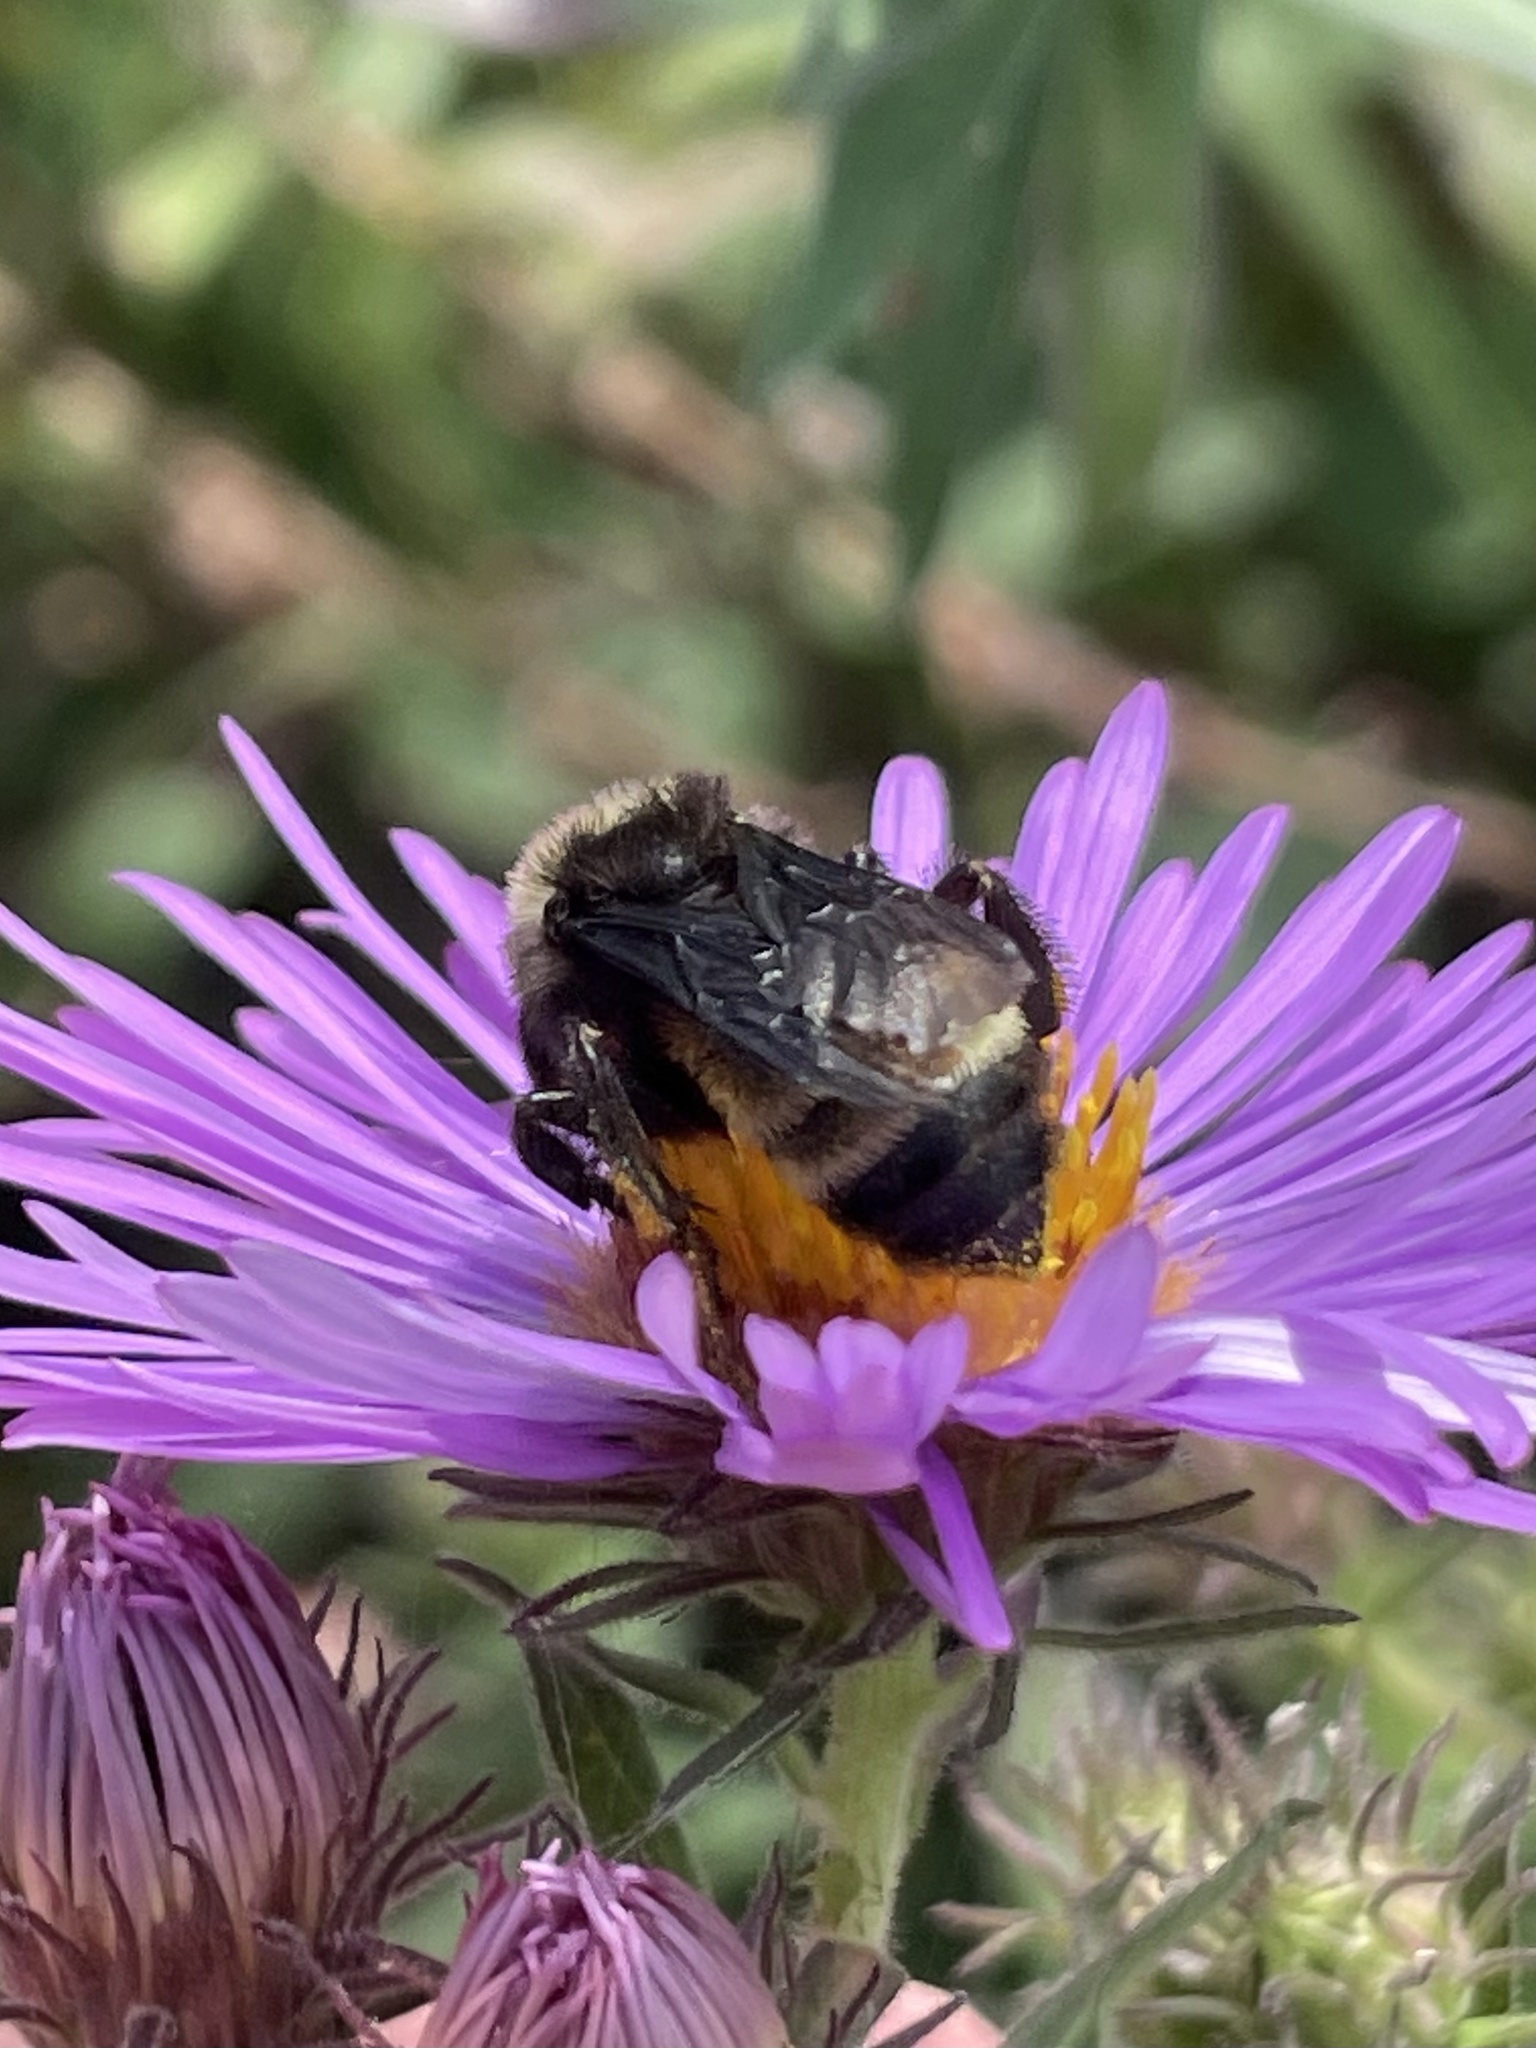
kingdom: Animalia
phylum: Arthropoda
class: Insecta
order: Hymenoptera
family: Apidae
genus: Bombus
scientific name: Bombus pensylvanicus
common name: Bumble bee
